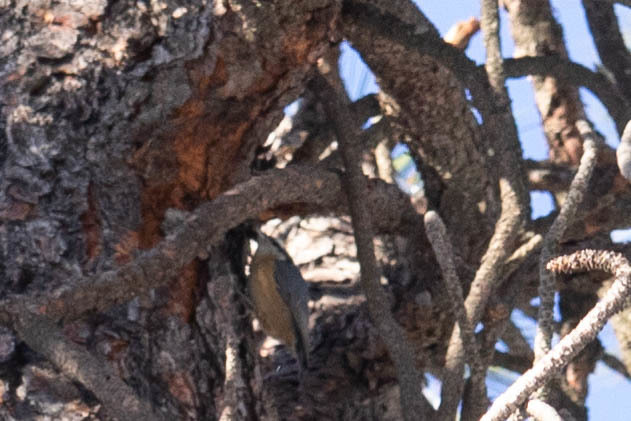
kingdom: Animalia
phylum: Chordata
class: Aves
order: Passeriformes
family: Sittidae
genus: Sitta
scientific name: Sitta canadensis
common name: Red-breasted nuthatch
